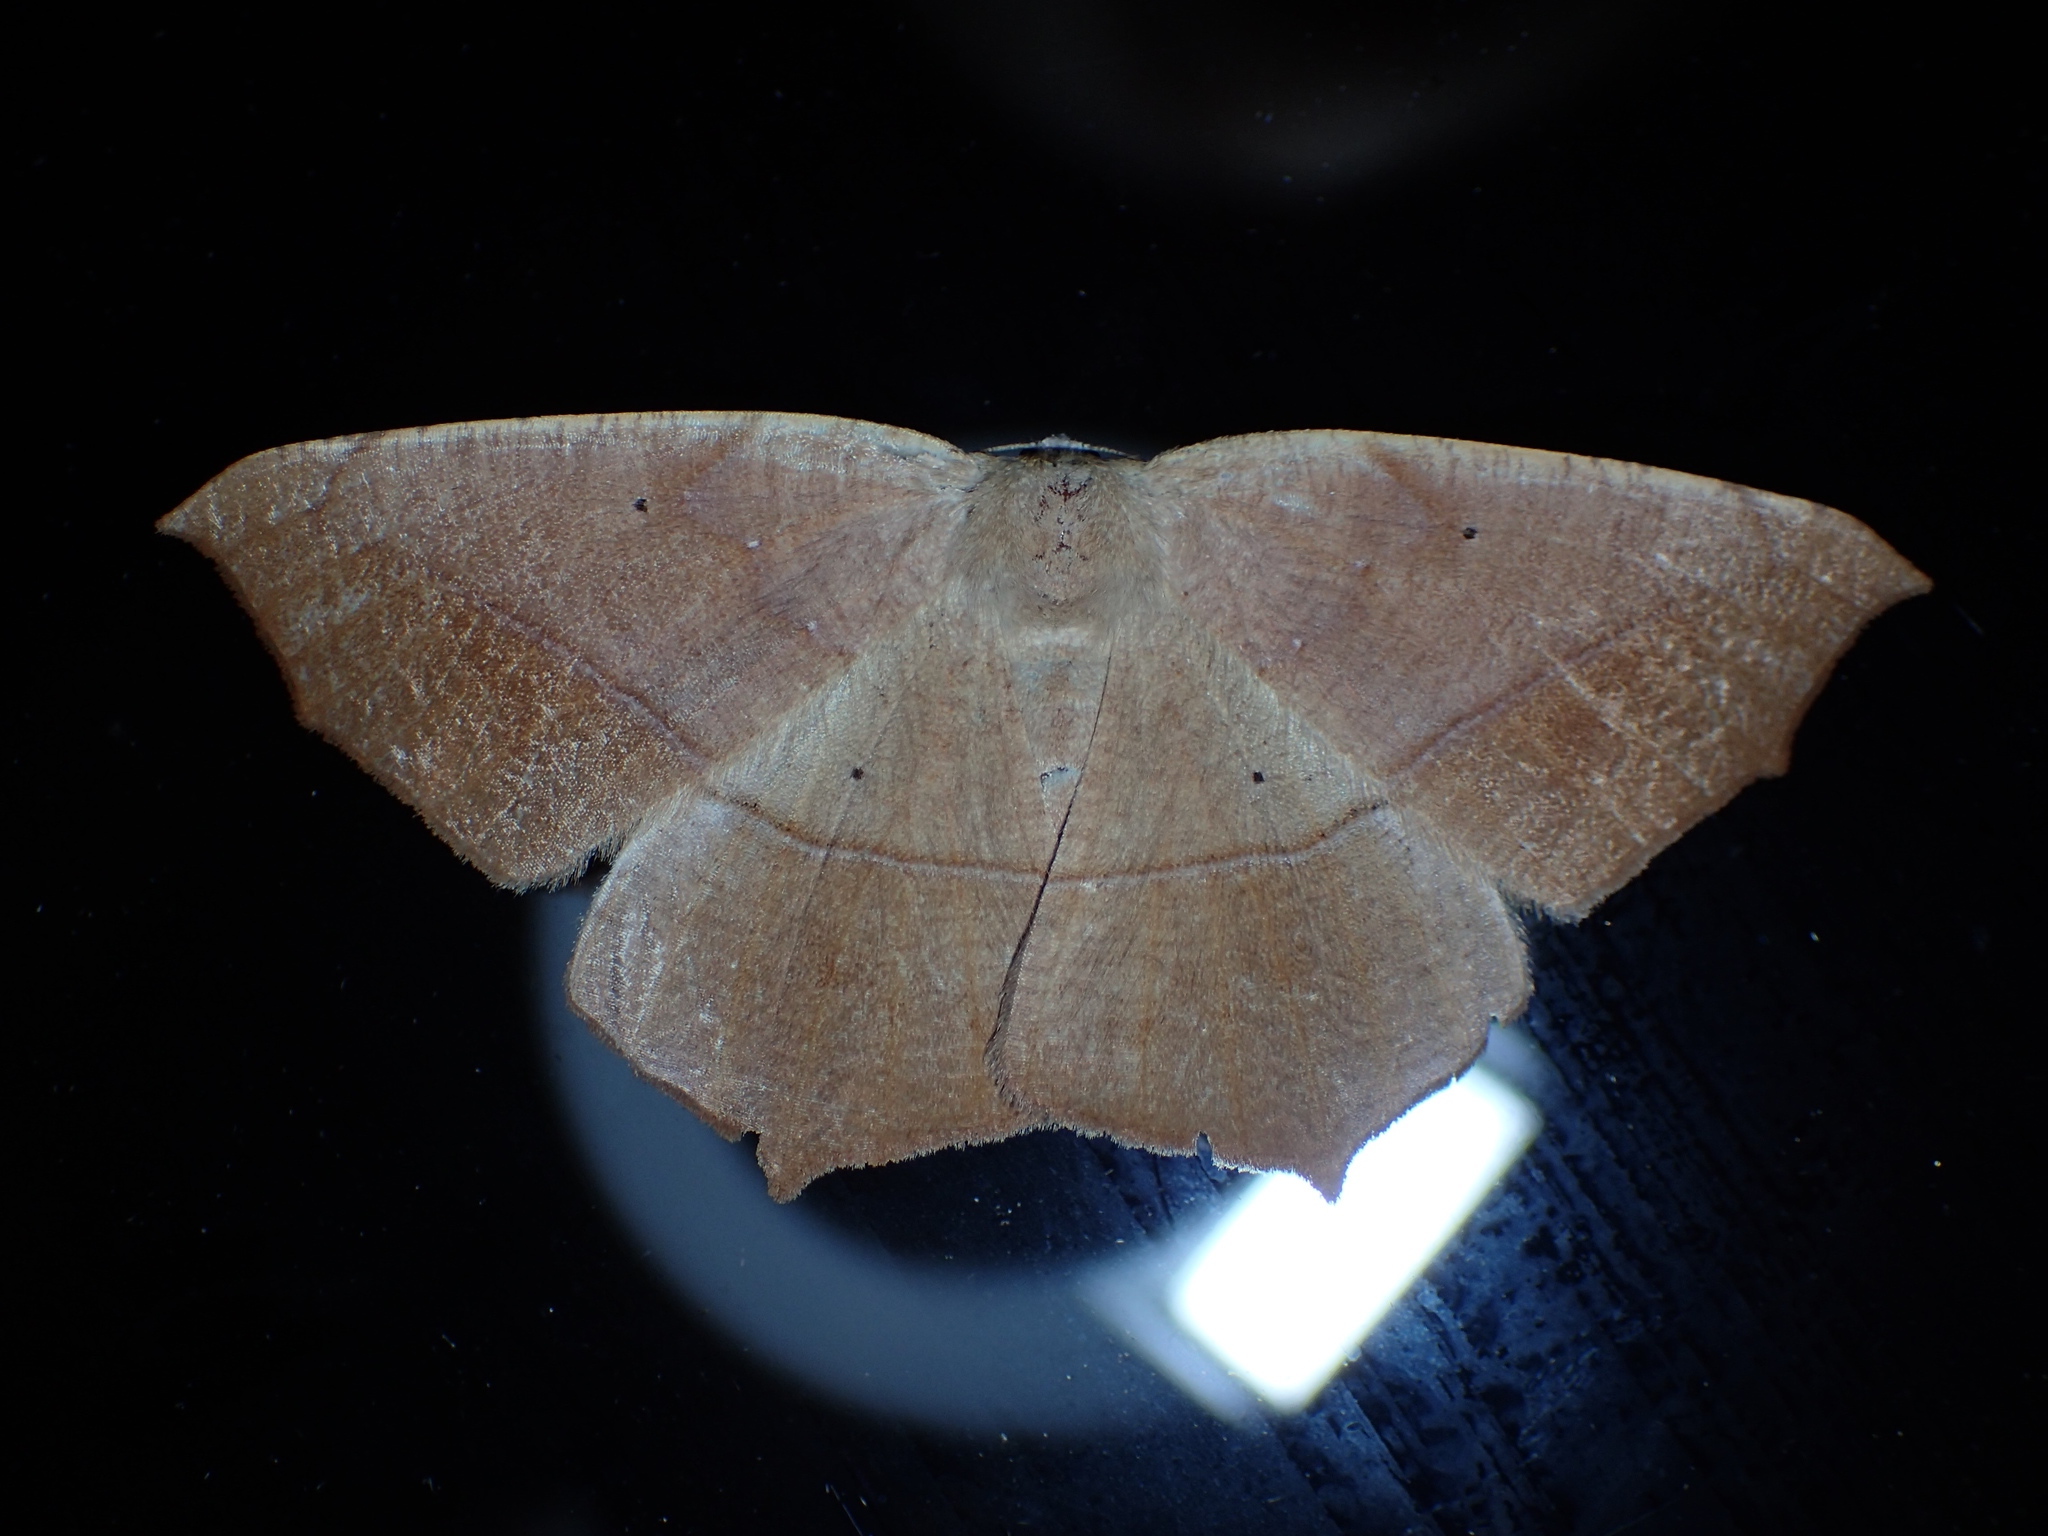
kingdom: Animalia
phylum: Arthropoda
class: Insecta
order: Lepidoptera
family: Geometridae
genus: Prochoerodes
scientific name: Prochoerodes lineola
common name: Large maple spanworm
